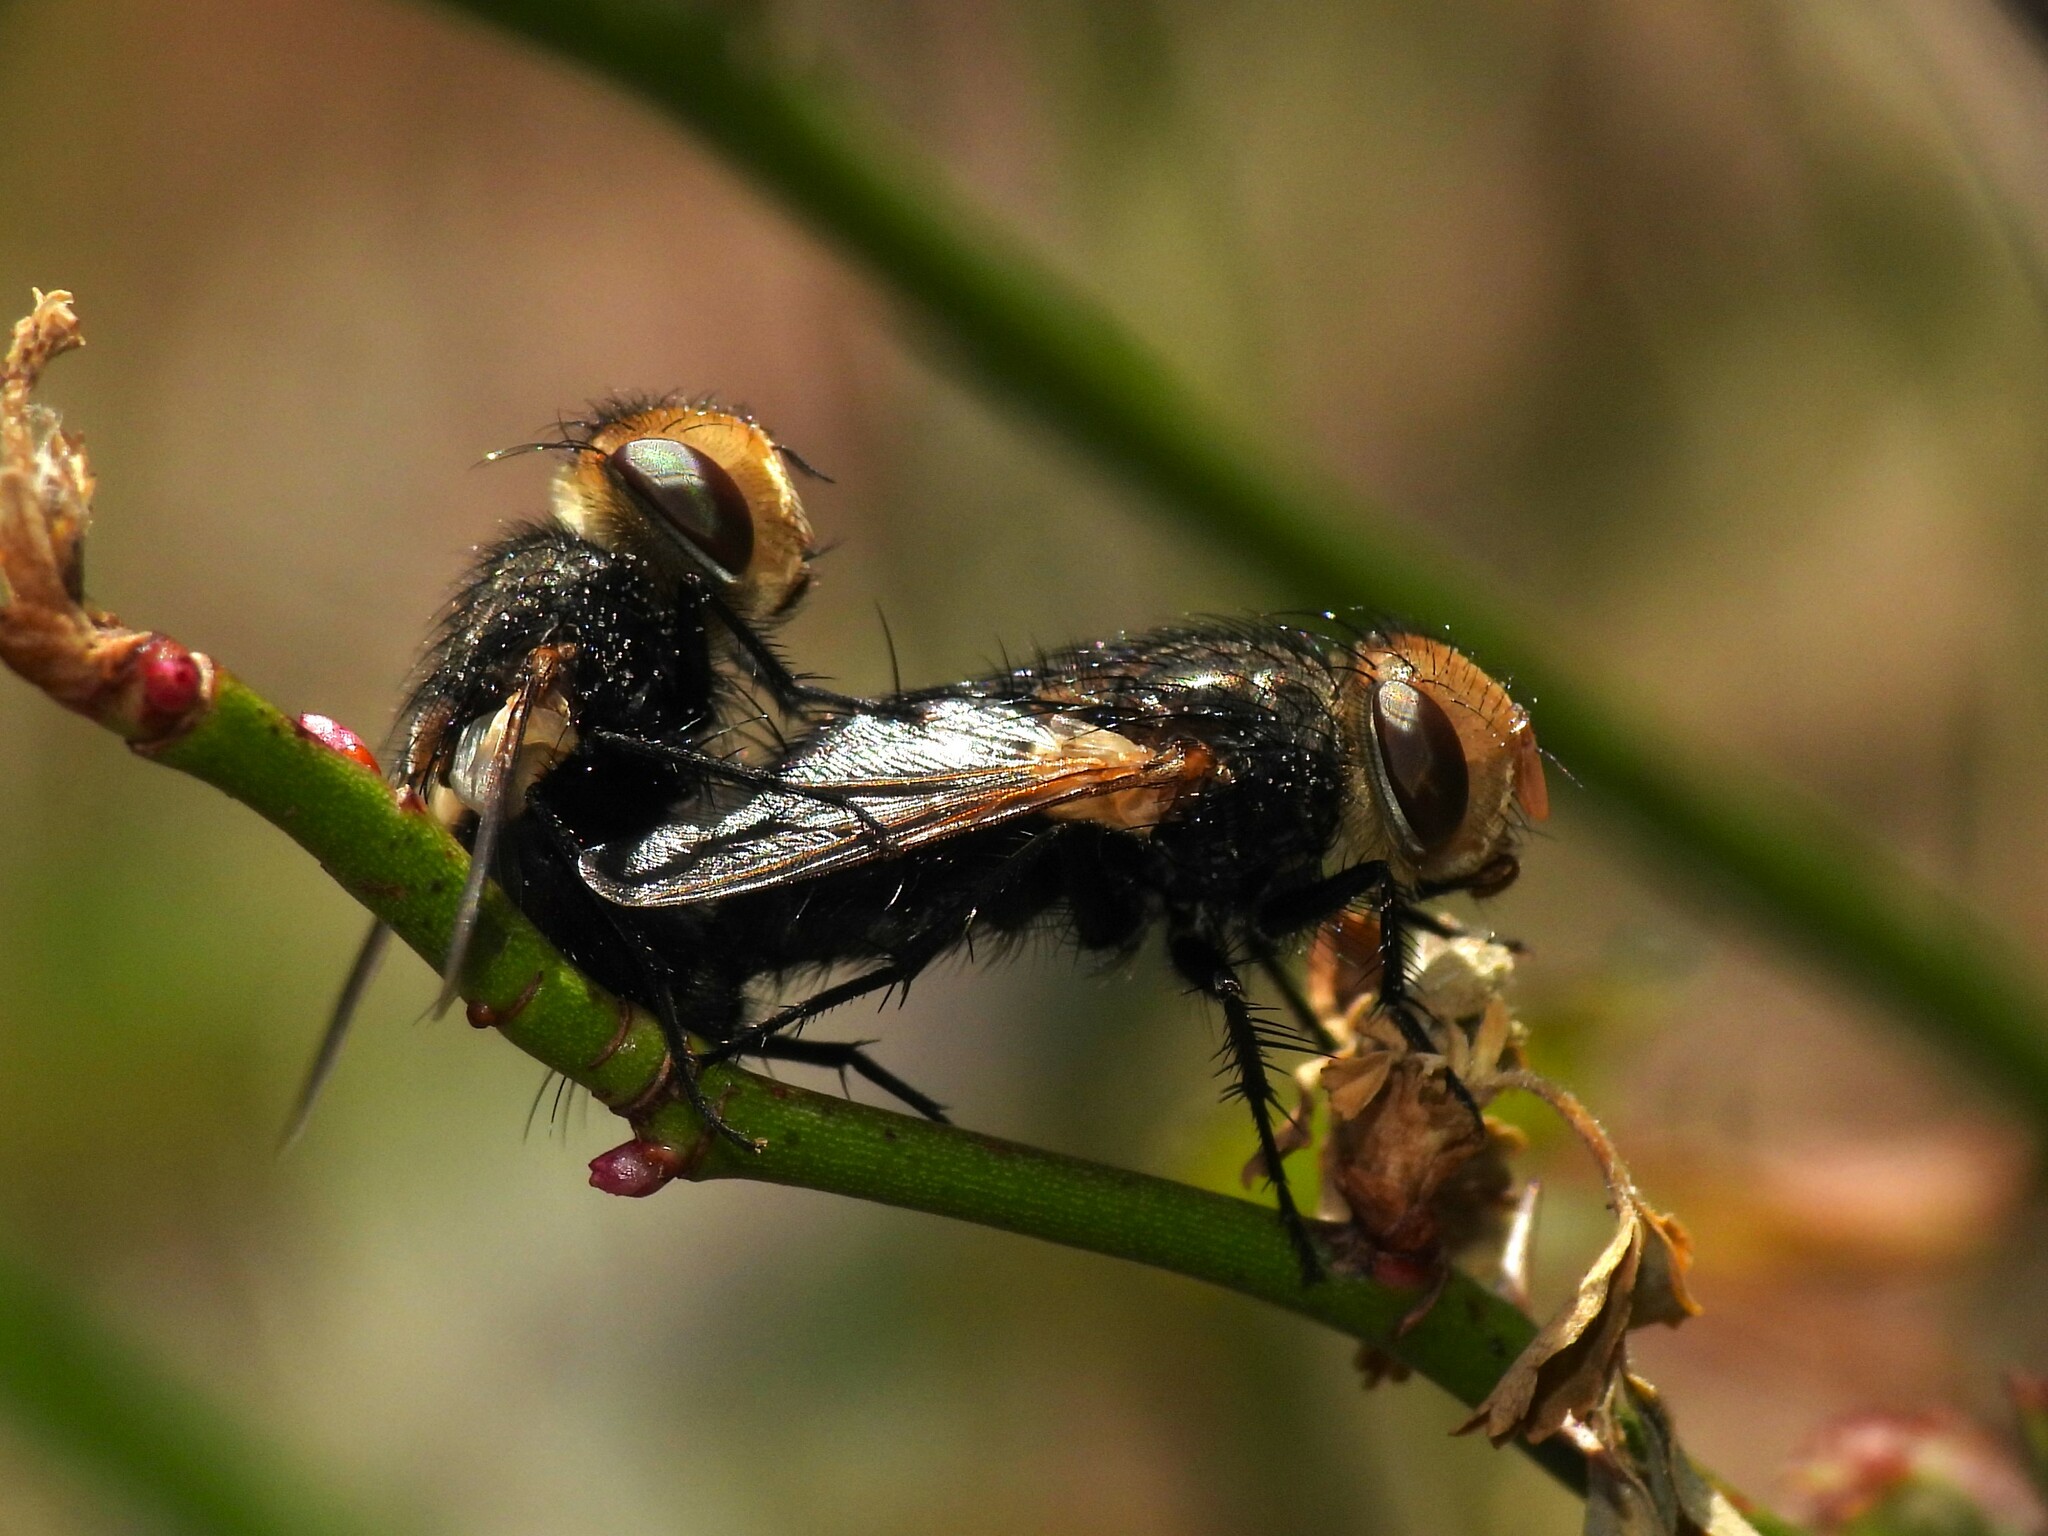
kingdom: Animalia
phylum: Arthropoda
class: Insecta
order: Diptera
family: Tachinidae
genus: Gonia
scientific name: Gonia sagax
